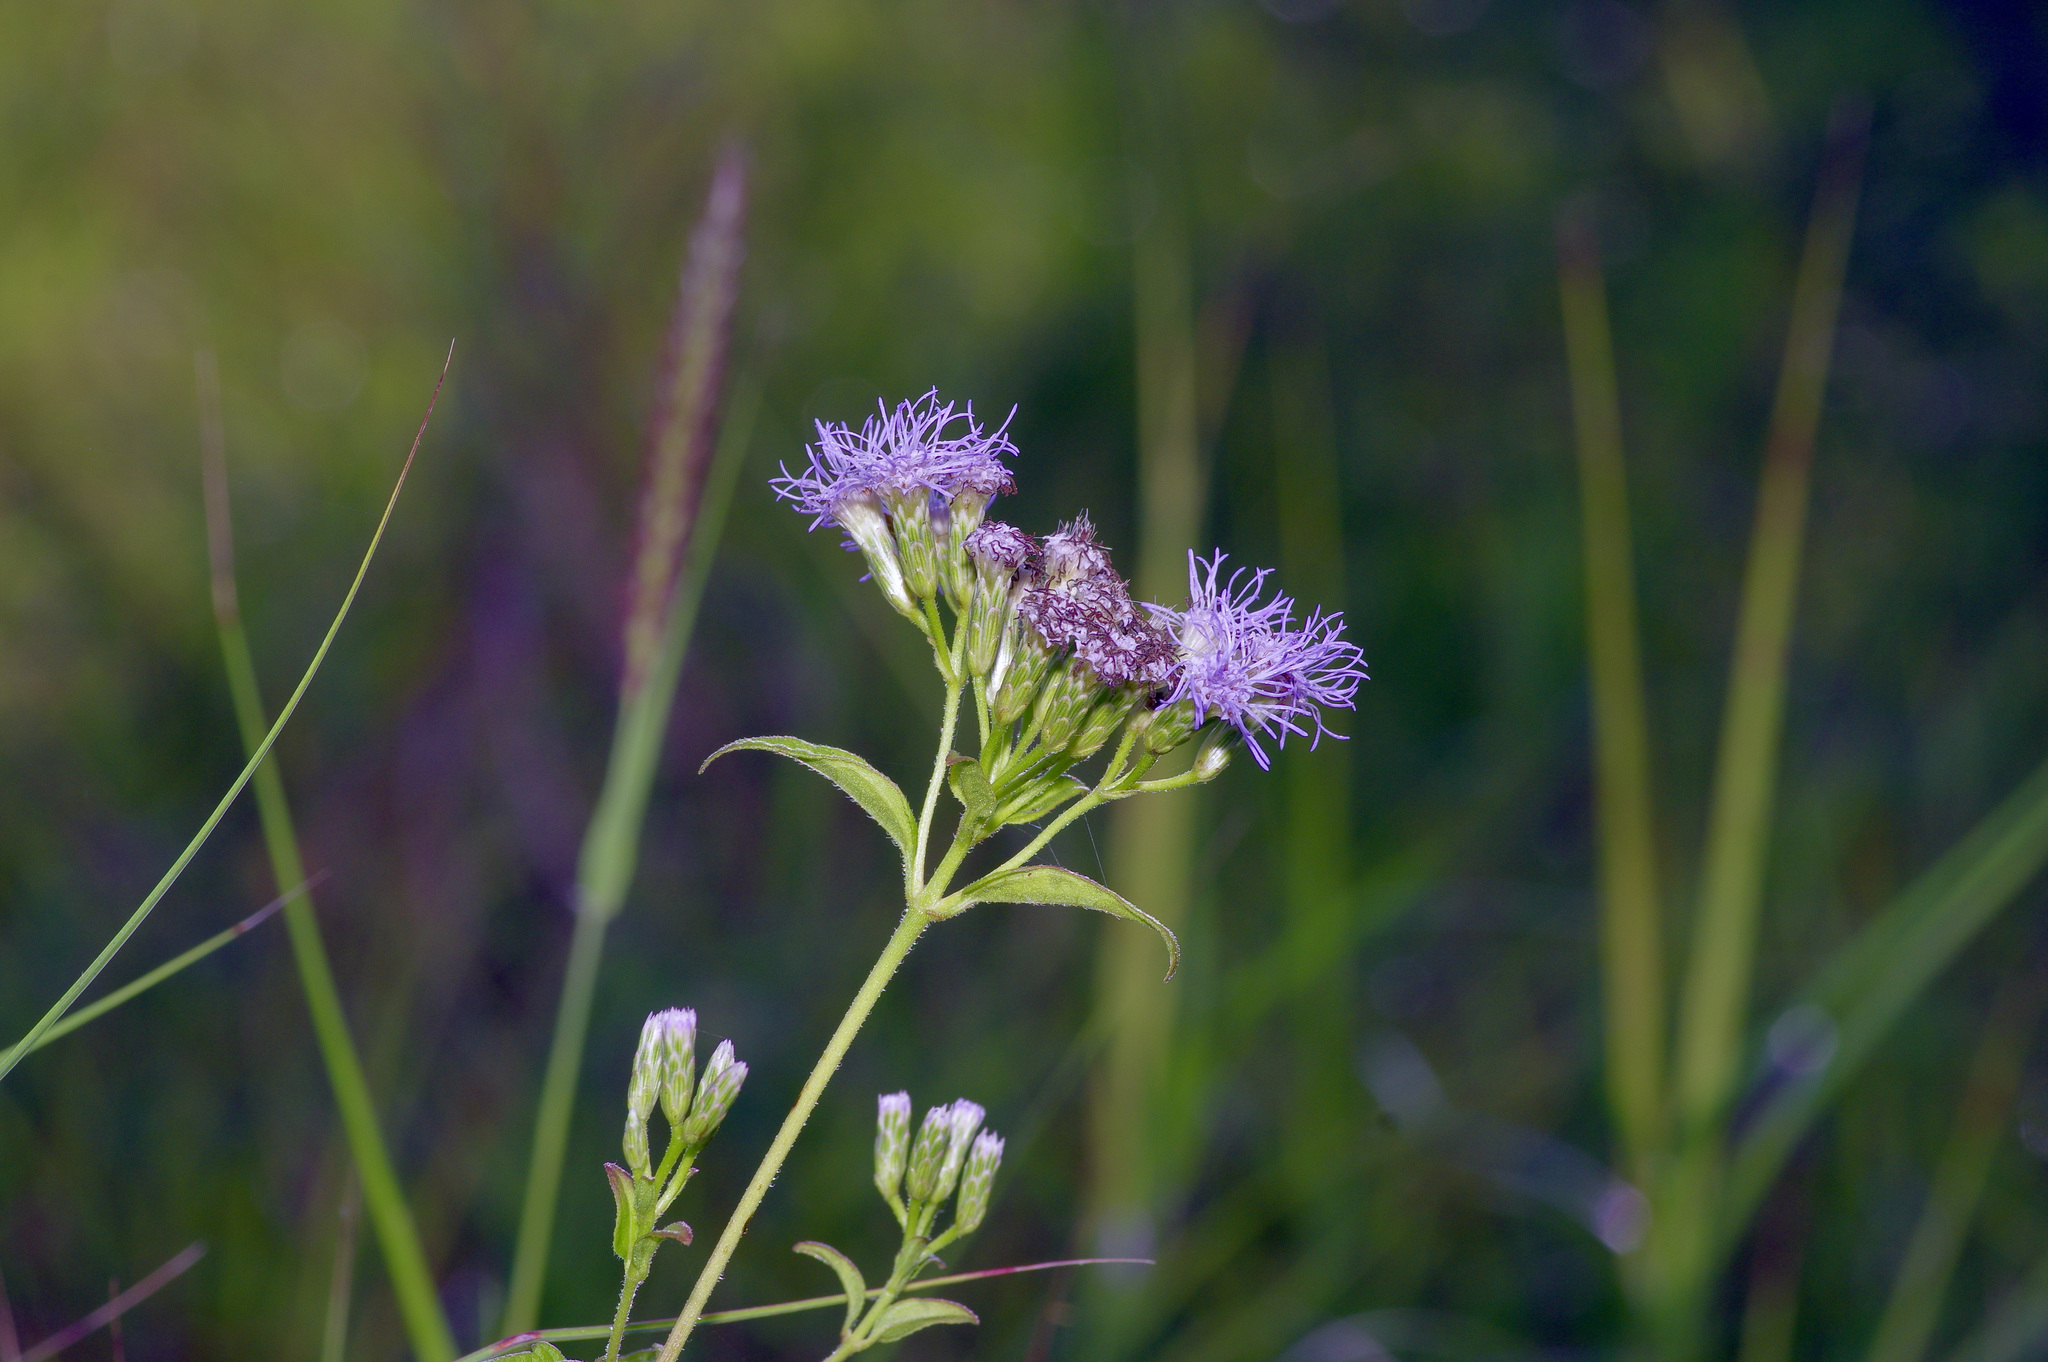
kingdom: Plantae
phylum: Tracheophyta
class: Magnoliopsida
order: Asterales
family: Asteraceae
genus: Chromolaena
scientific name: Chromolaena odorata
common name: Siamweed
